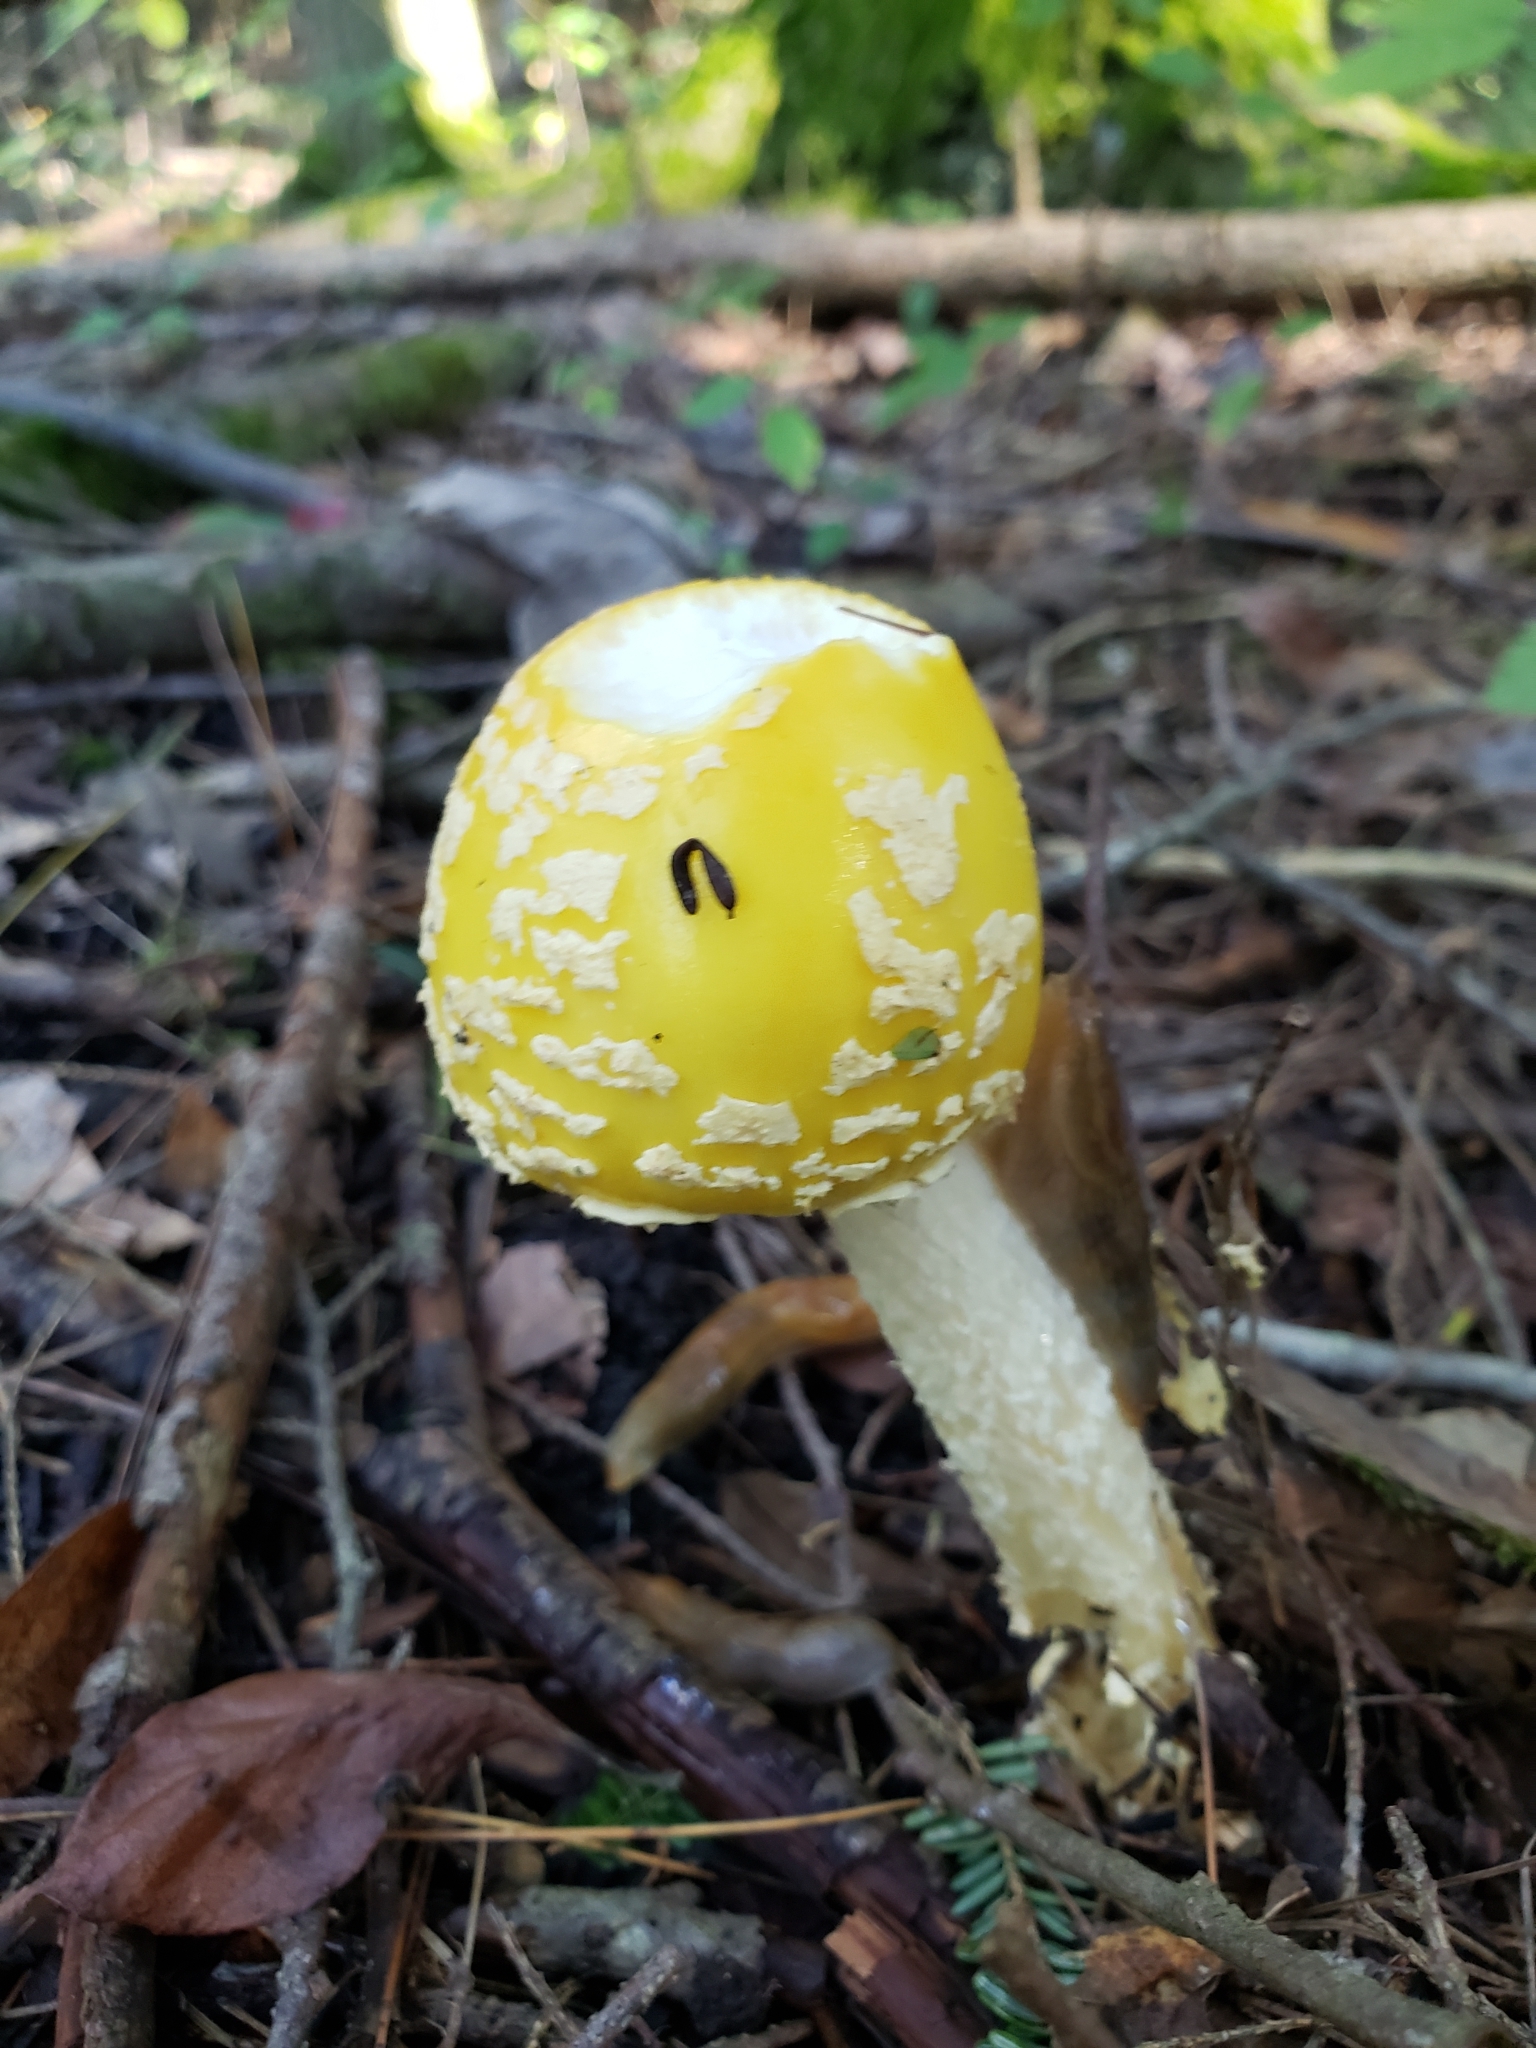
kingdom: Fungi
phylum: Basidiomycota
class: Agaricomycetes
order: Agaricales
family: Amanitaceae
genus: Amanita
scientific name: Amanita muscaria
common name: Fly agaric
